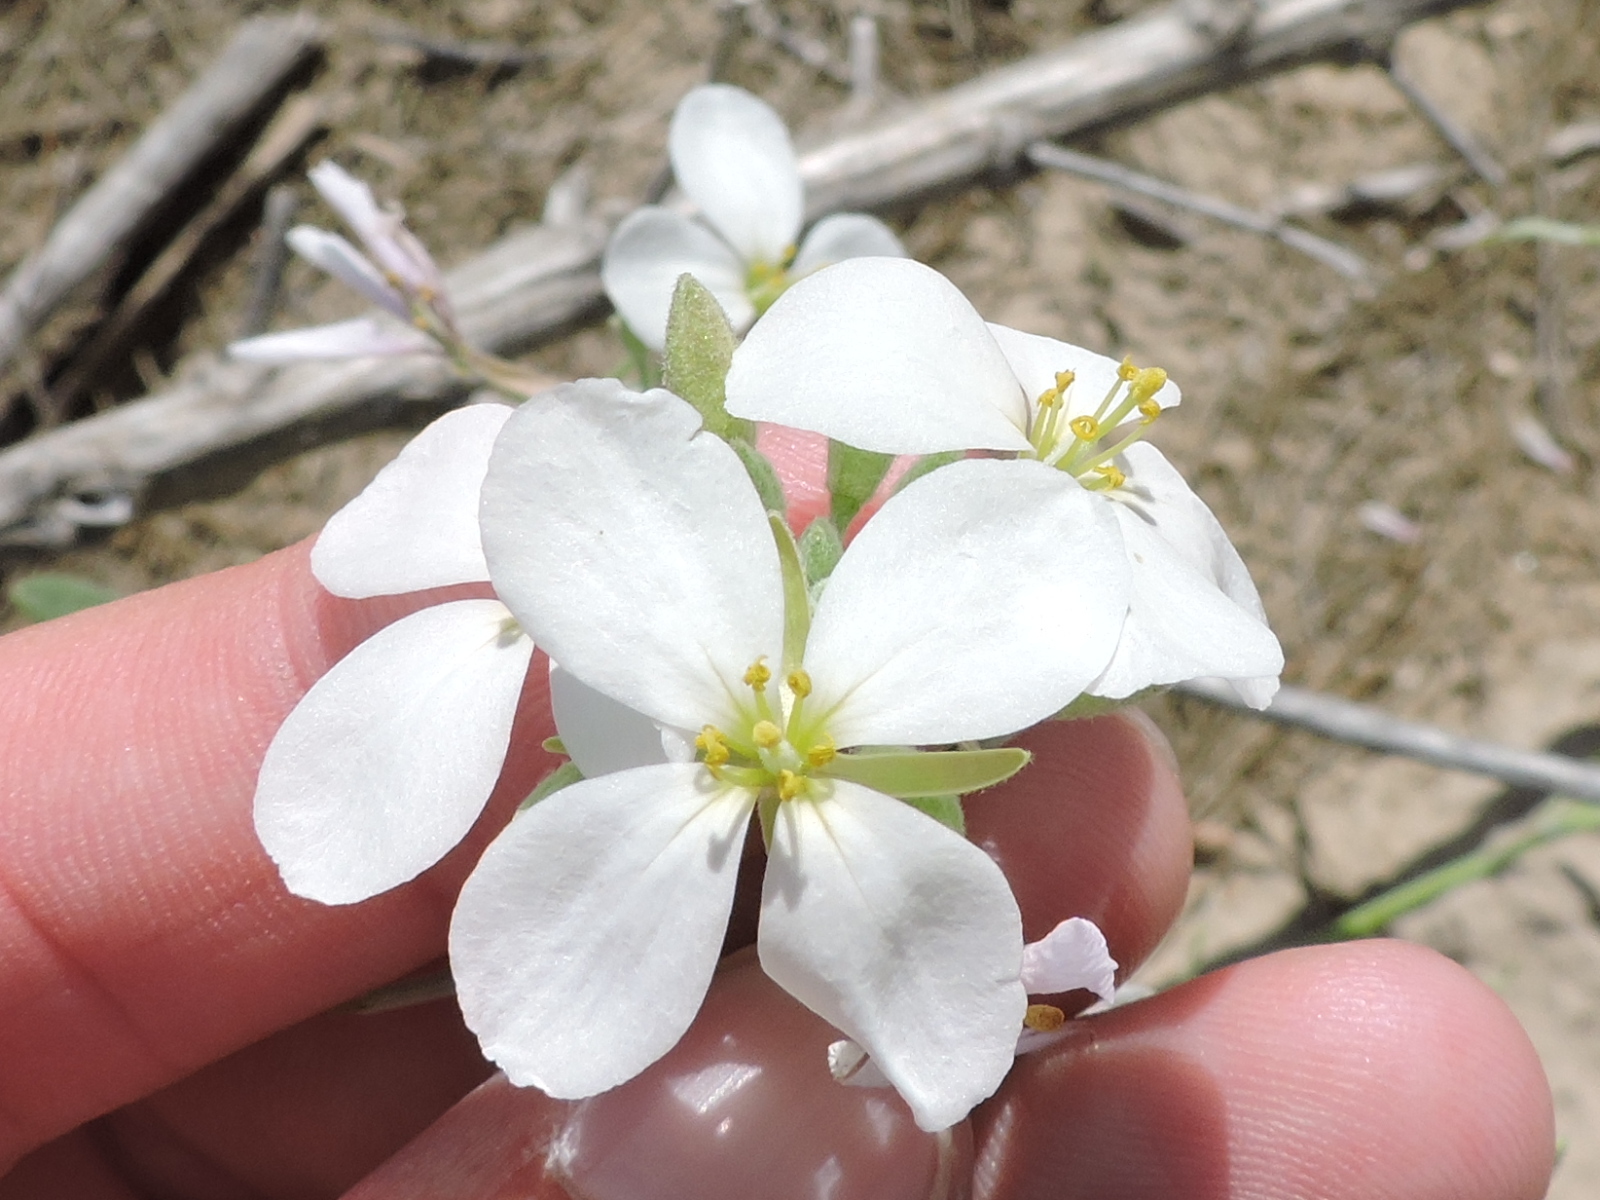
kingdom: Plantae
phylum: Tracheophyta
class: Magnoliopsida
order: Brassicales
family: Brassicaceae
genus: Nerisyrenia
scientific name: Nerisyrenia camporum
